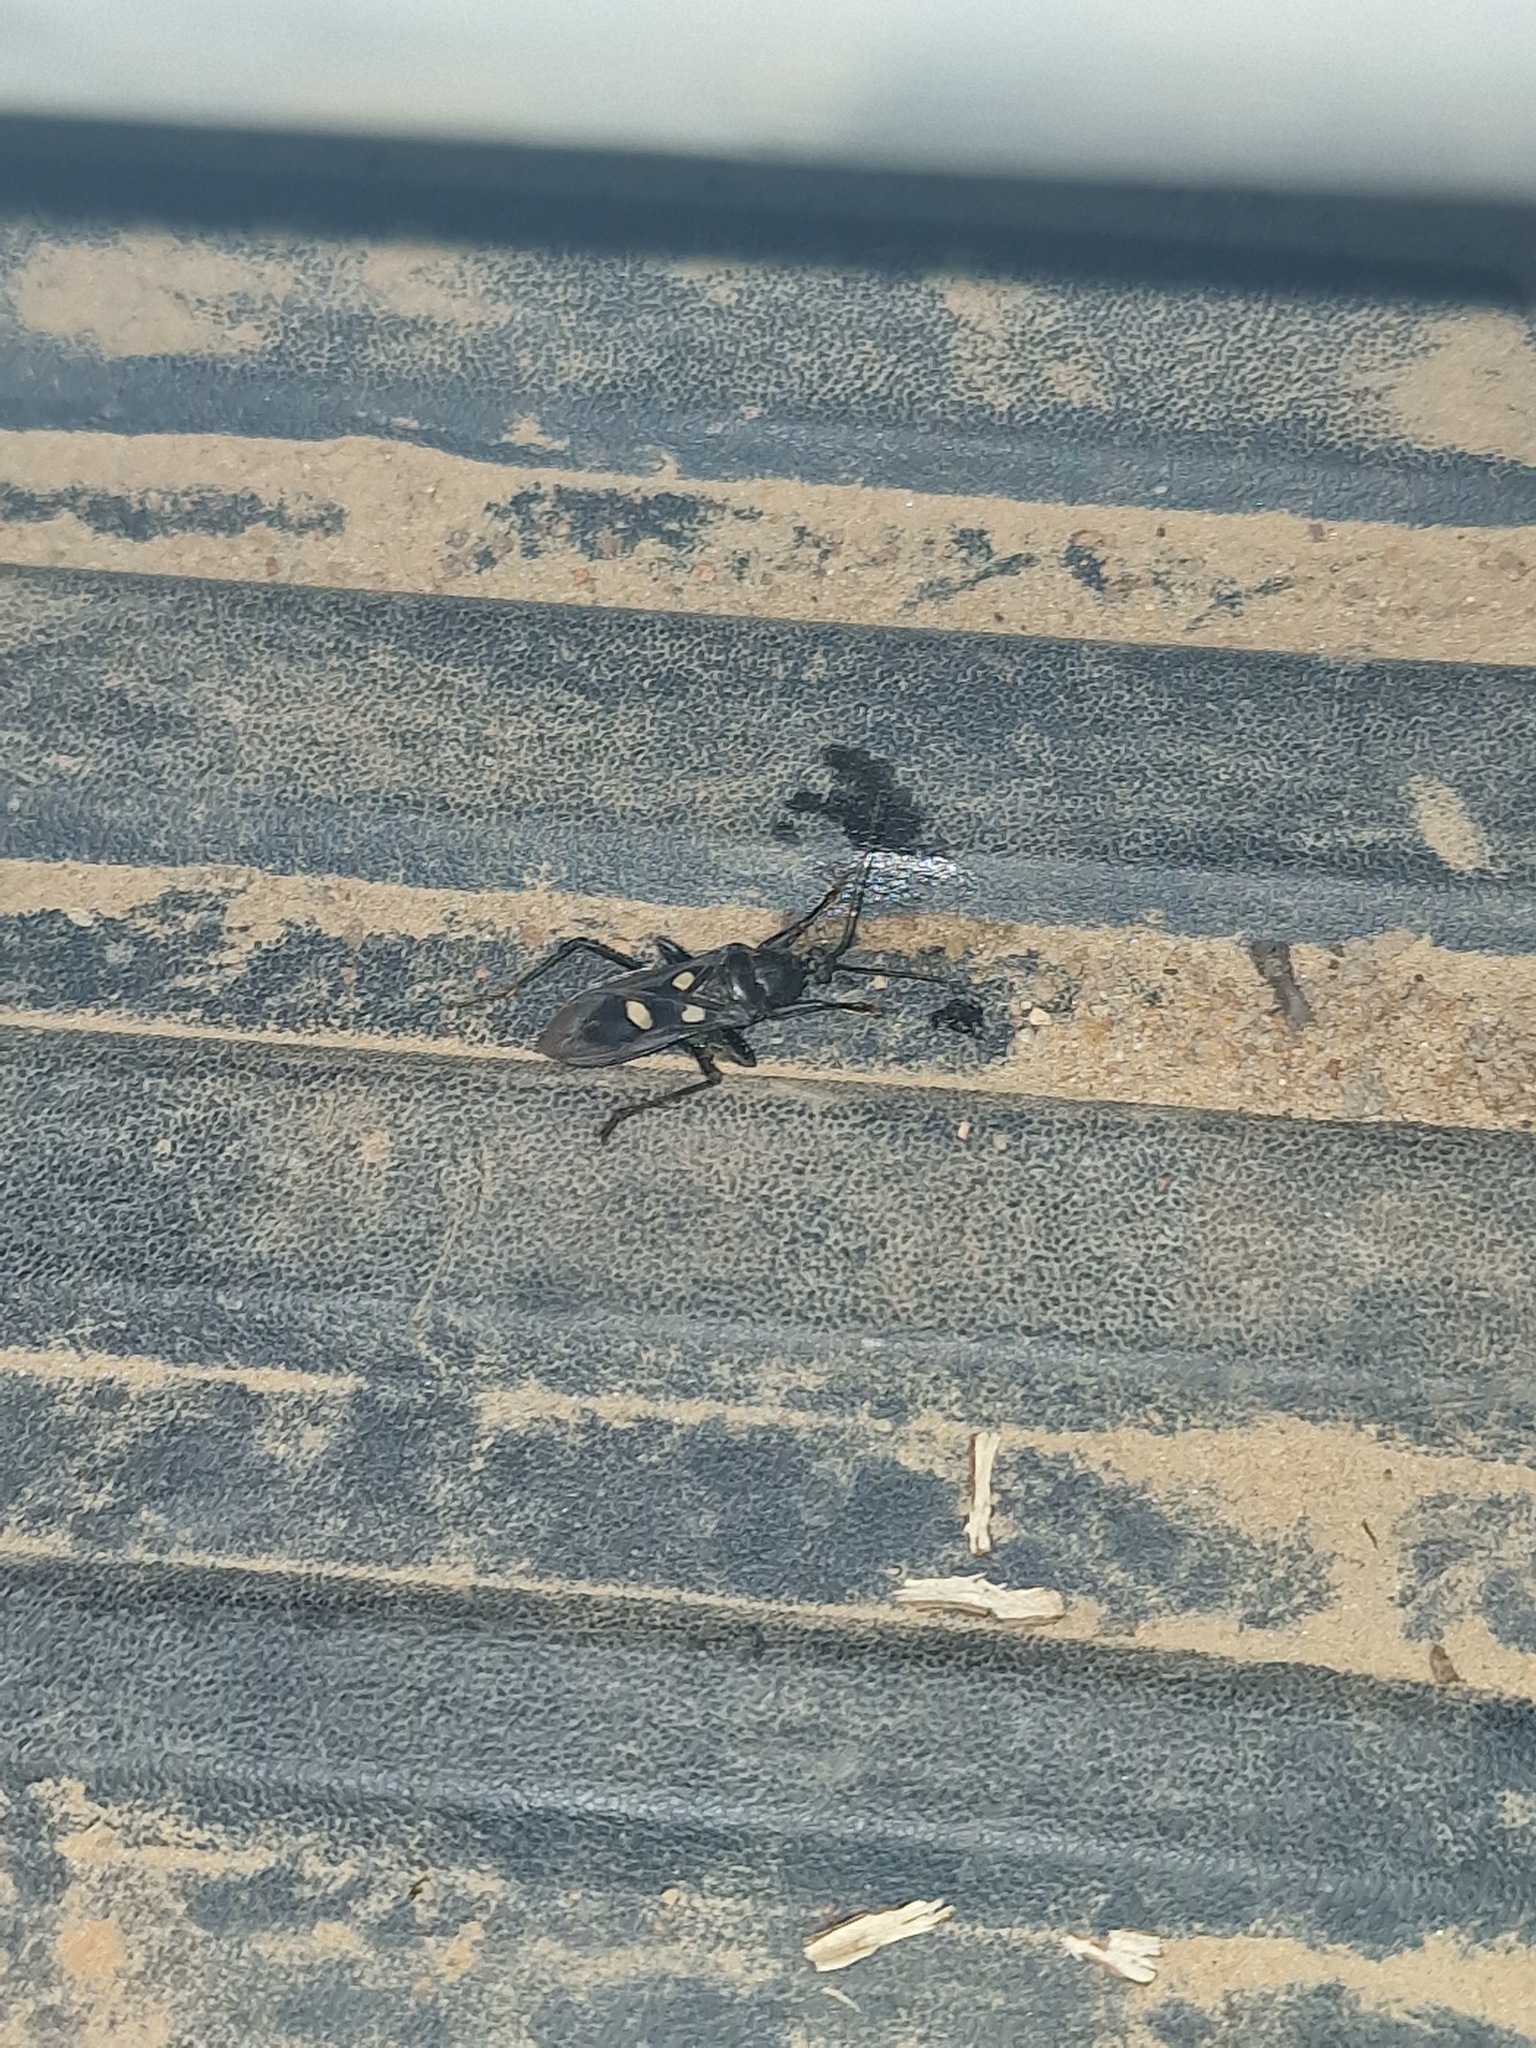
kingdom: Animalia
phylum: Arthropoda
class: Insecta
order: Hemiptera
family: Reduviidae
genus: Ectomocoris
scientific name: Ectomocoris quadrimaculatus
